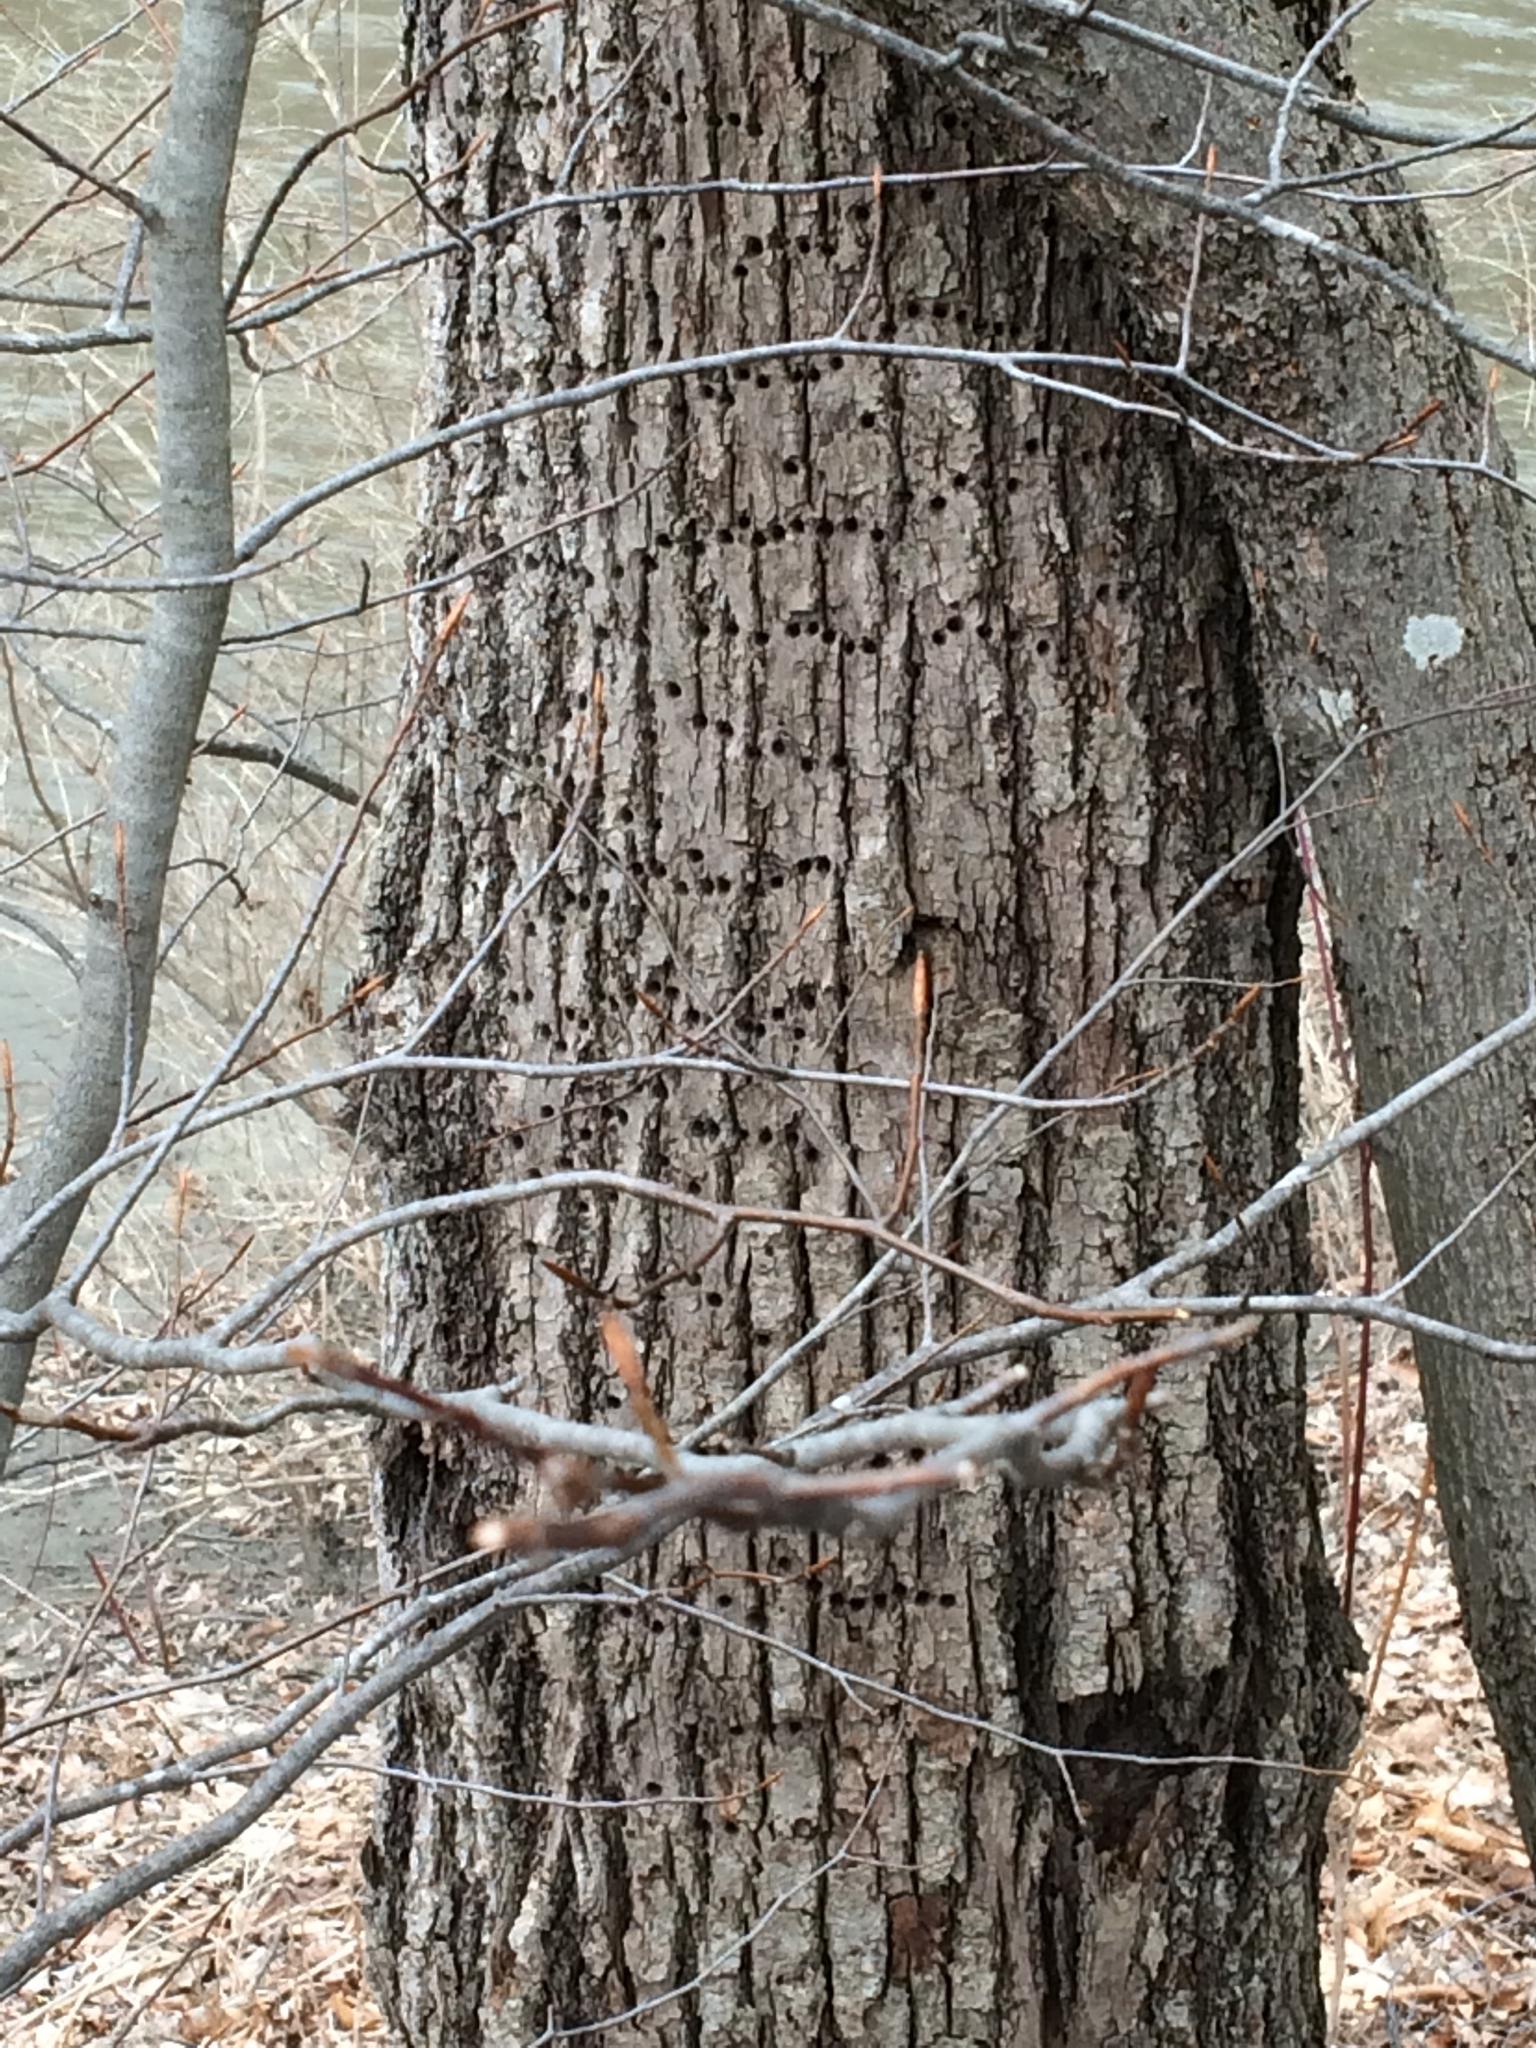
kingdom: Animalia
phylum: Chordata
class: Aves
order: Piciformes
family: Picidae
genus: Sphyrapicus
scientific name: Sphyrapicus varius
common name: Yellow-bellied sapsucker
